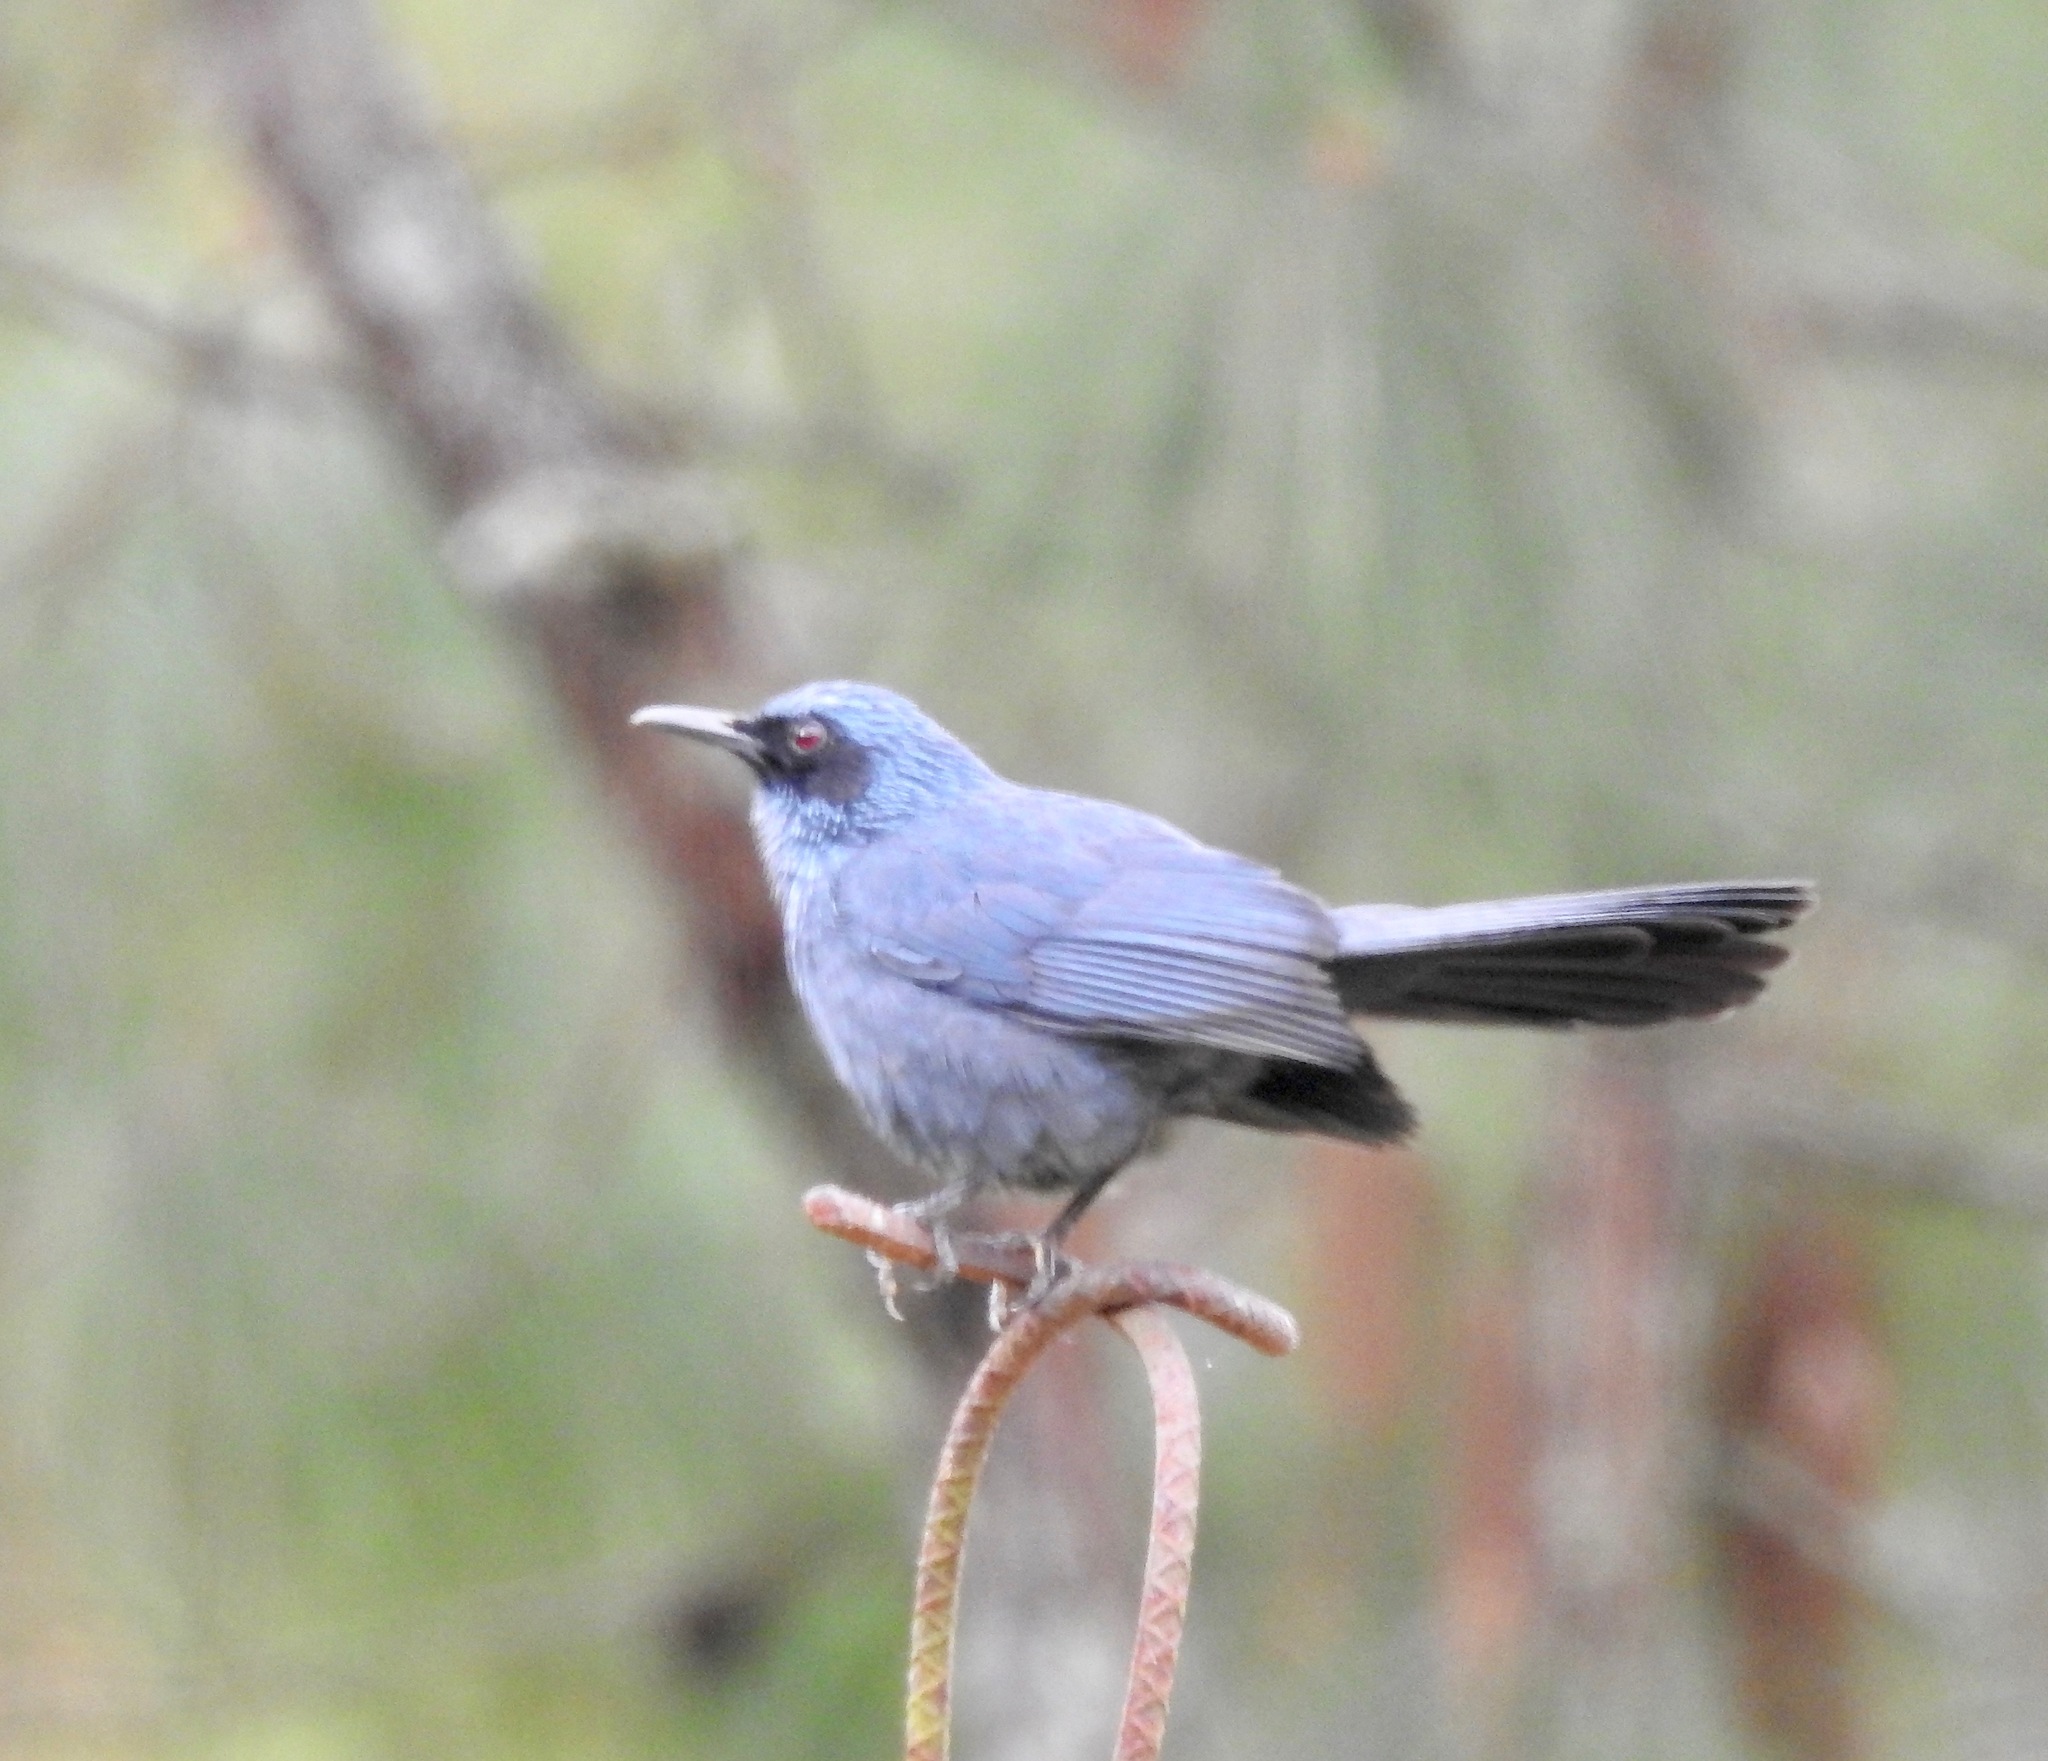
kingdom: Animalia
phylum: Chordata
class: Aves
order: Passeriformes
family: Mimidae
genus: Melanotis
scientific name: Melanotis caerulescens
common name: Blue mockingbird
